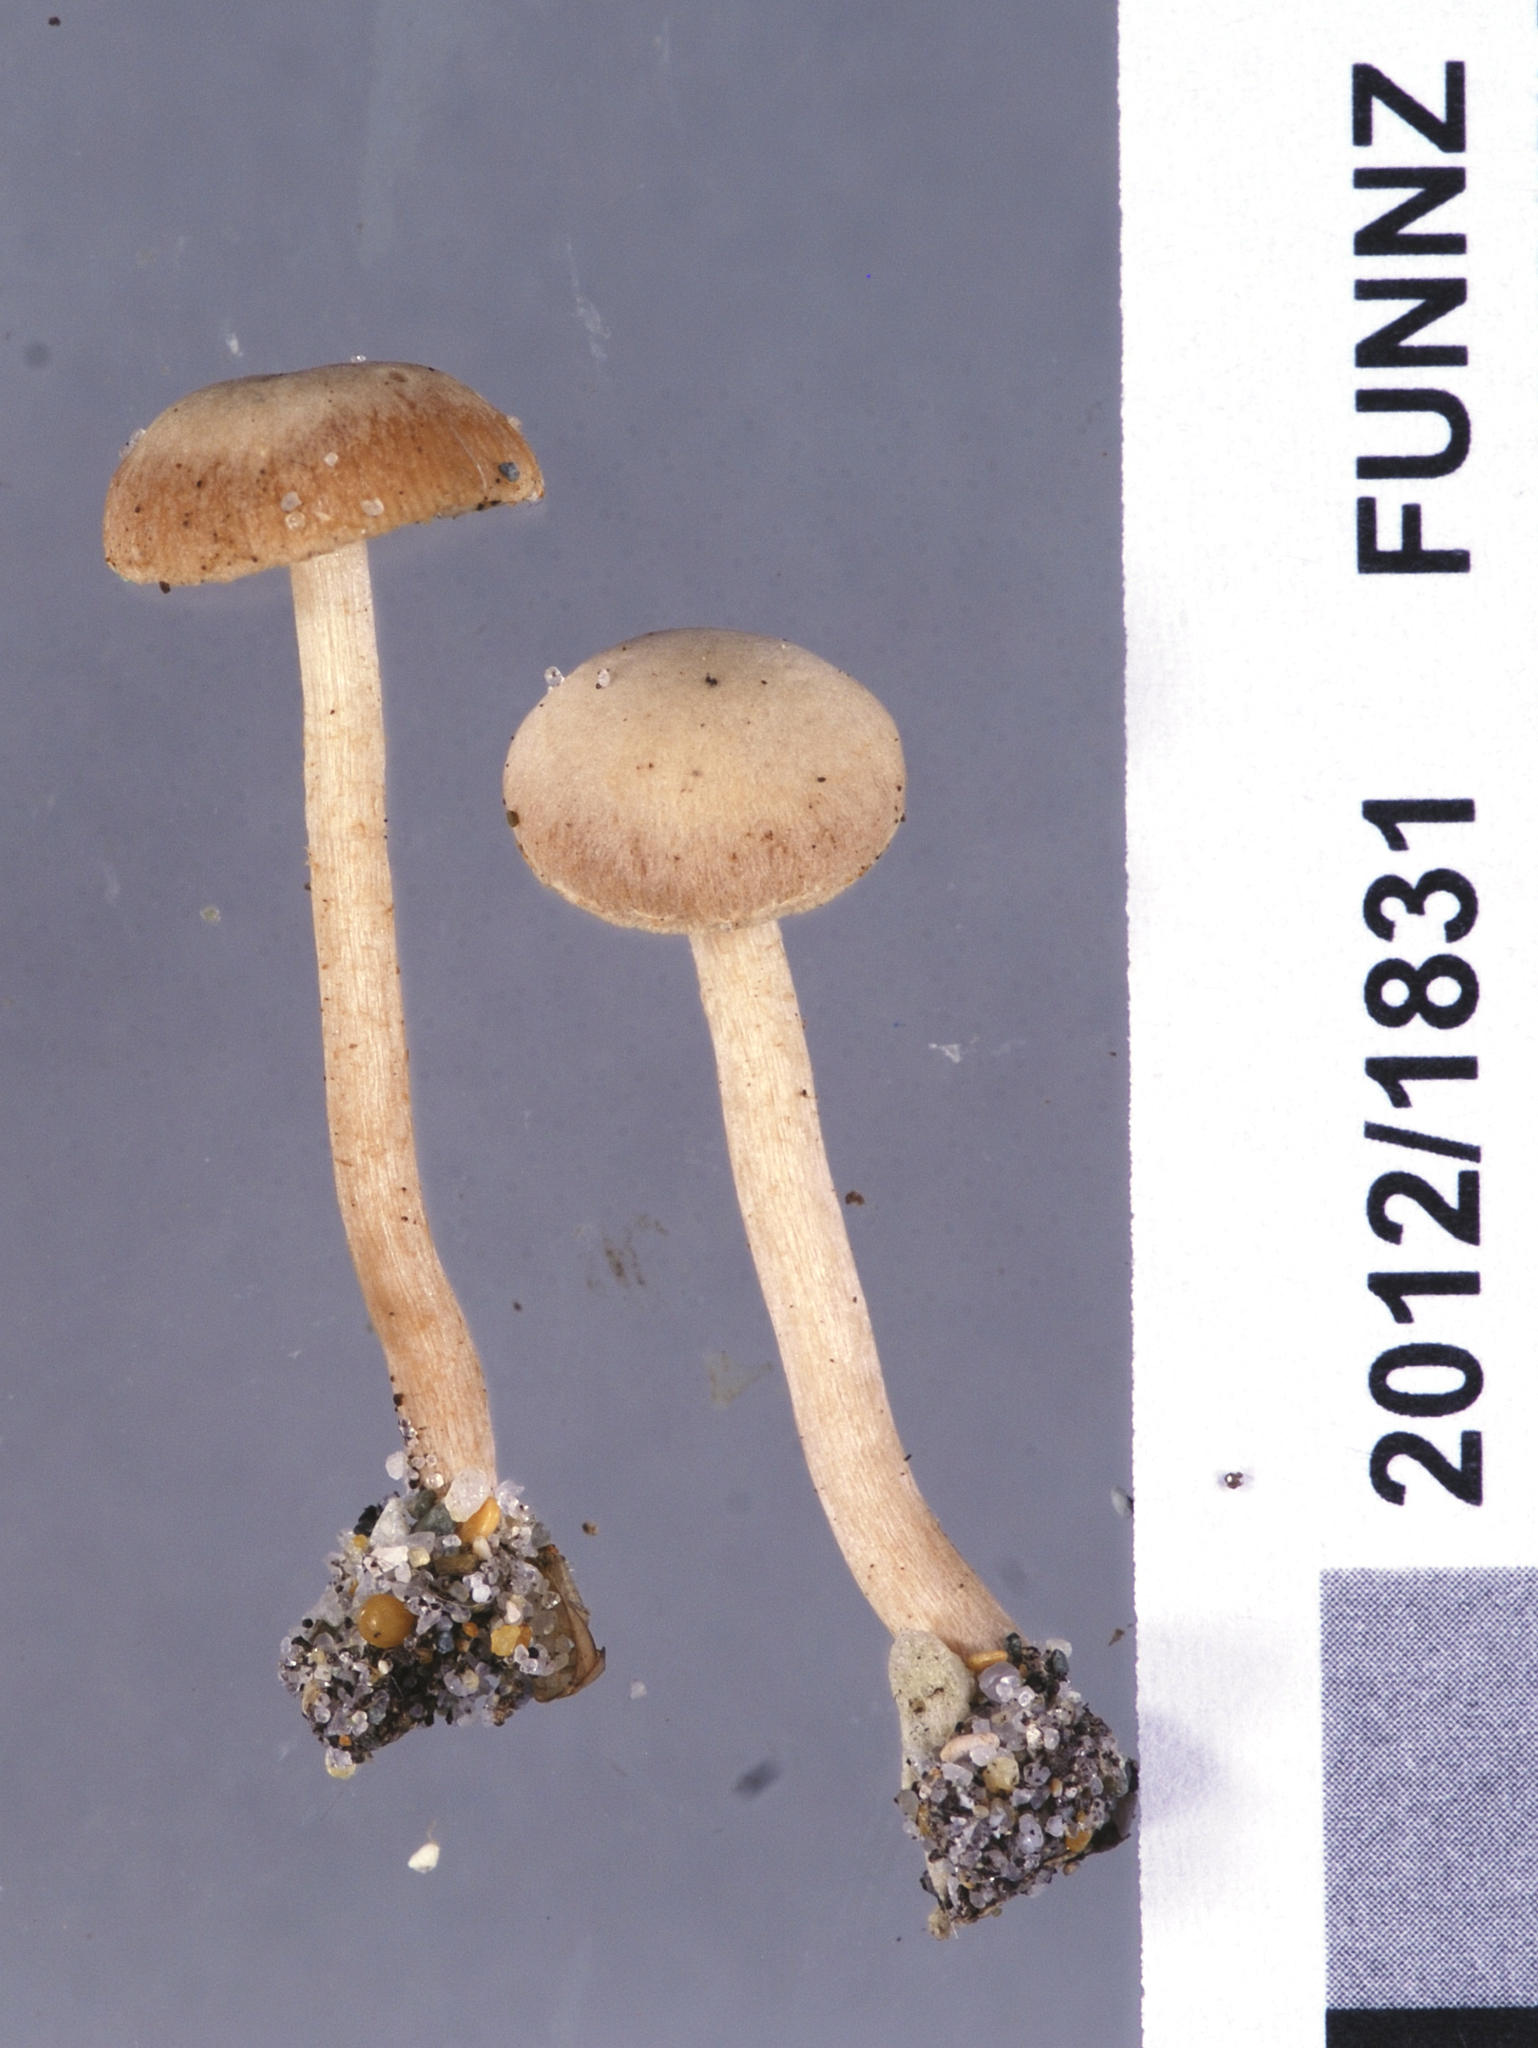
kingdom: Fungi
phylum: Basidiomycota
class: Agaricomycetes
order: Agaricales
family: Tubariaceae
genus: Tubaria
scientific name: Tubaria furfuracea
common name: Scurfy twiglet
